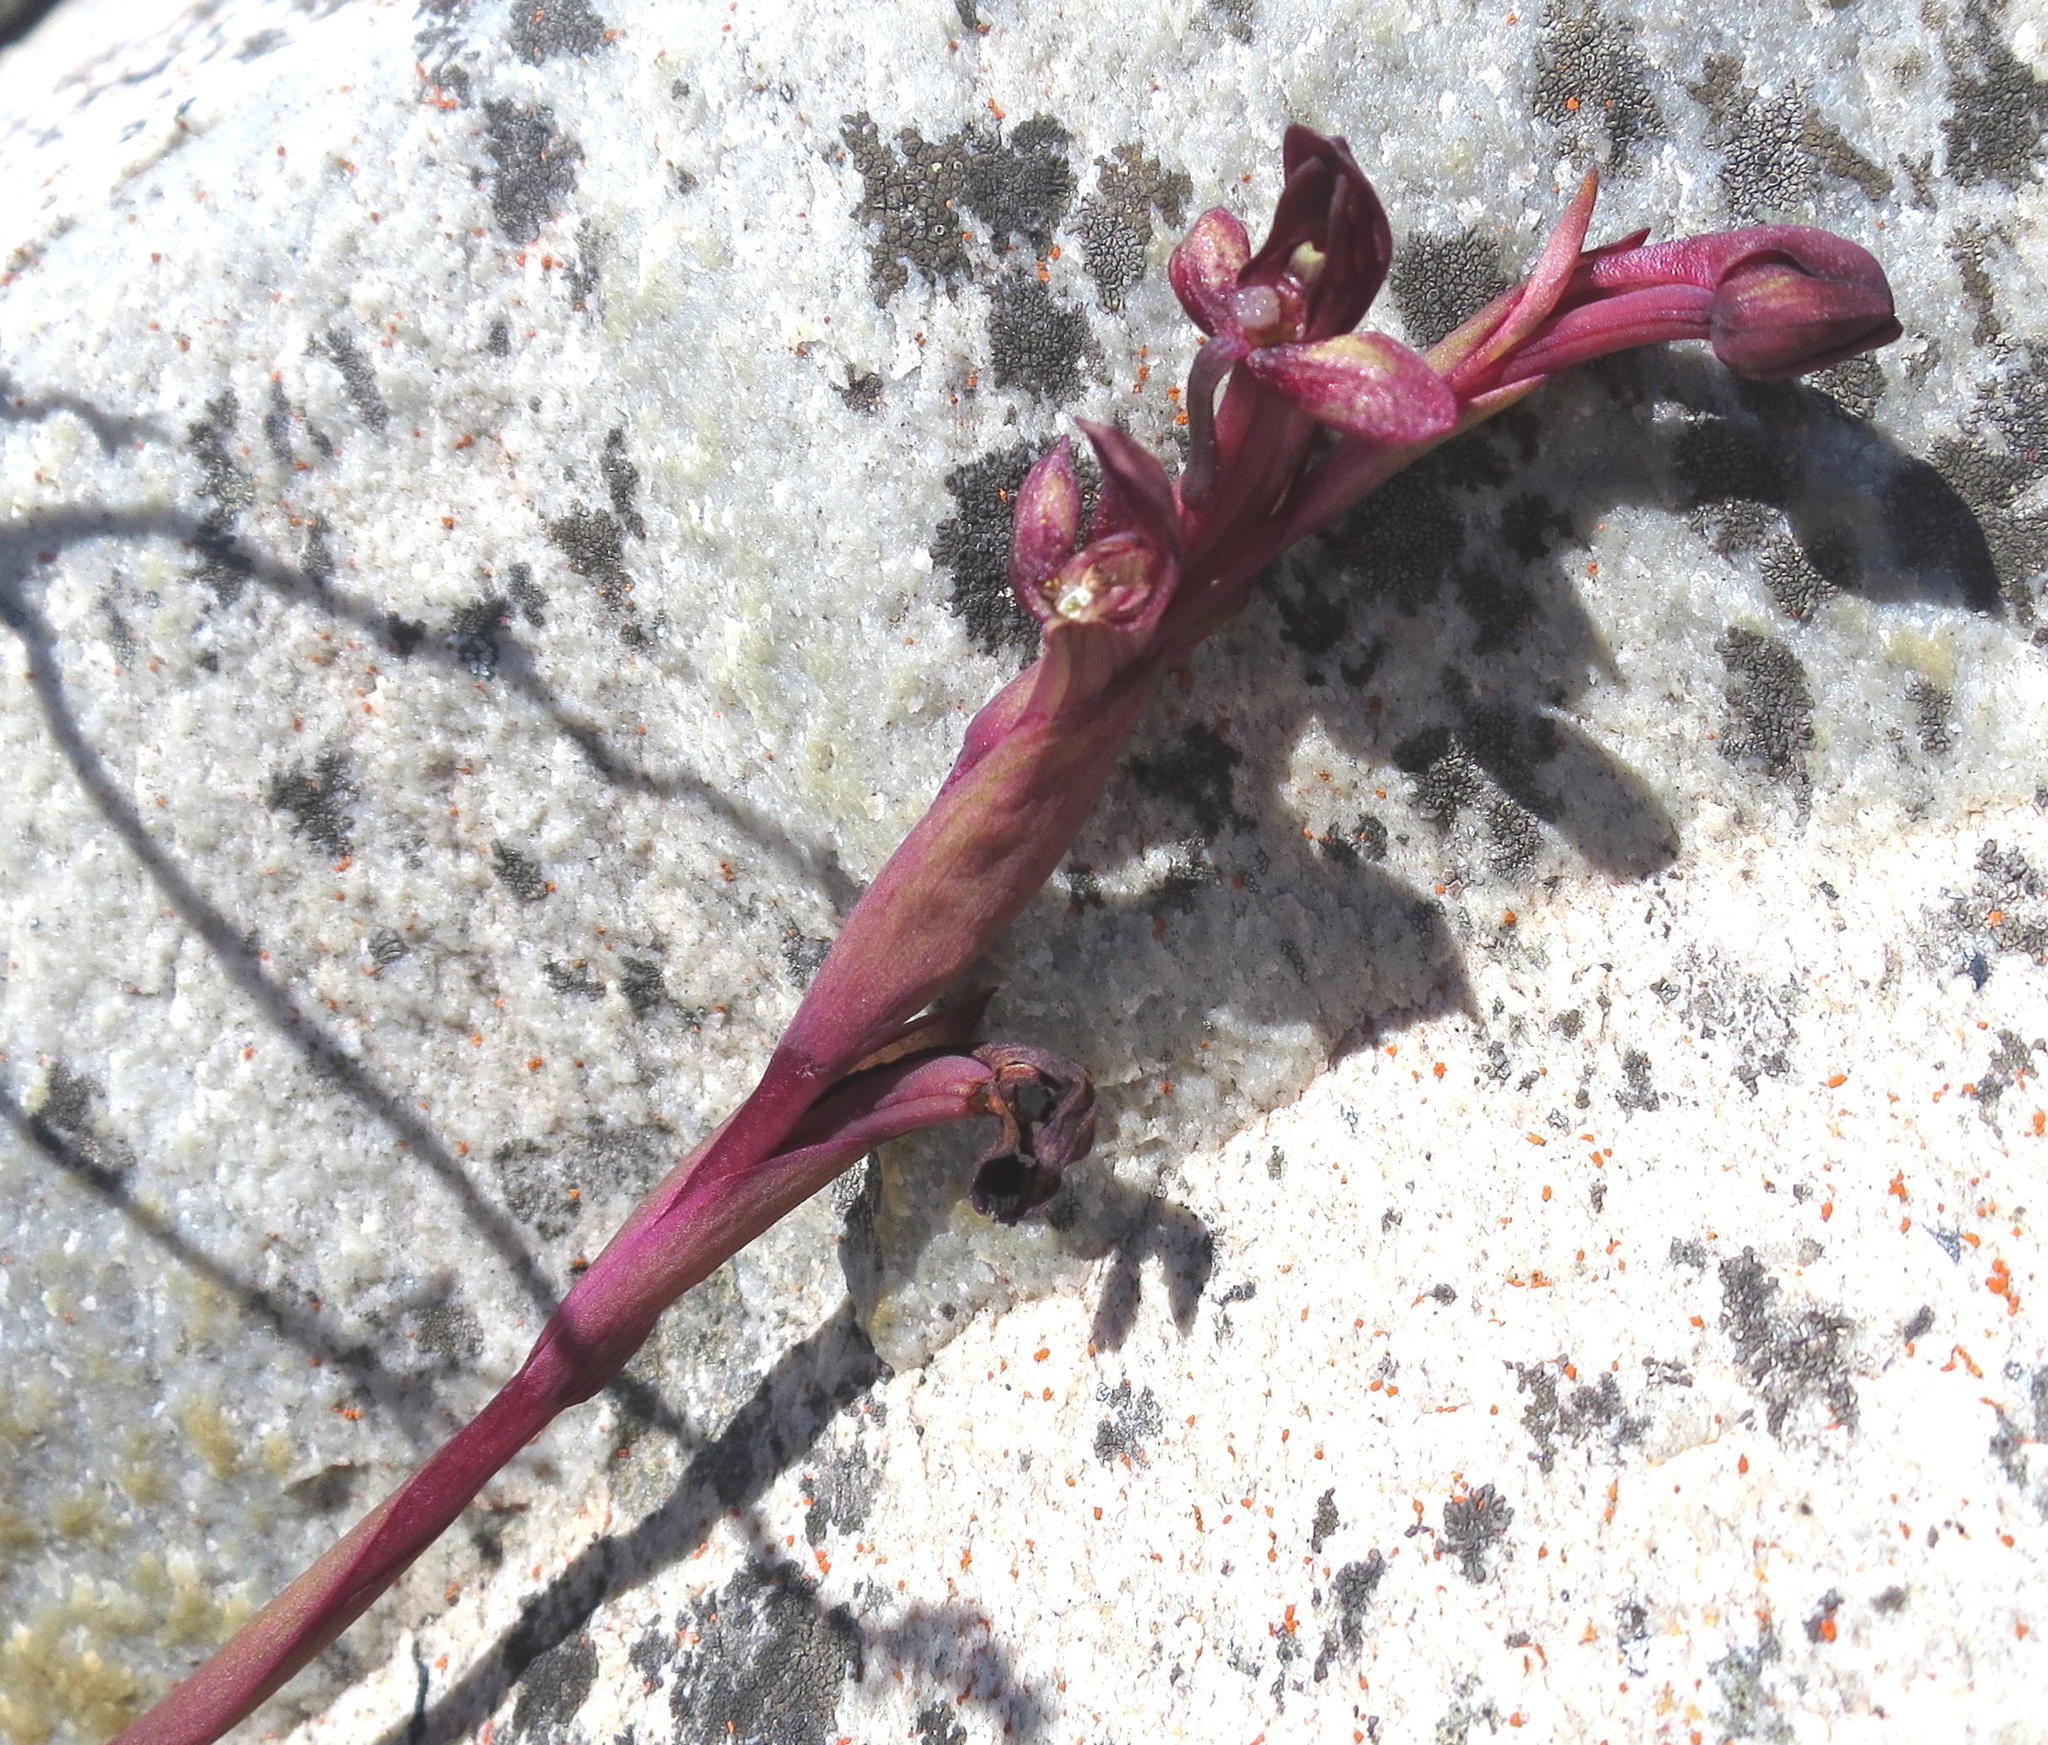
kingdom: Plantae
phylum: Tracheophyta
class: Liliopsida
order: Asparagales
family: Orchidaceae
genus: Disa
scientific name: Disa ophrydea
